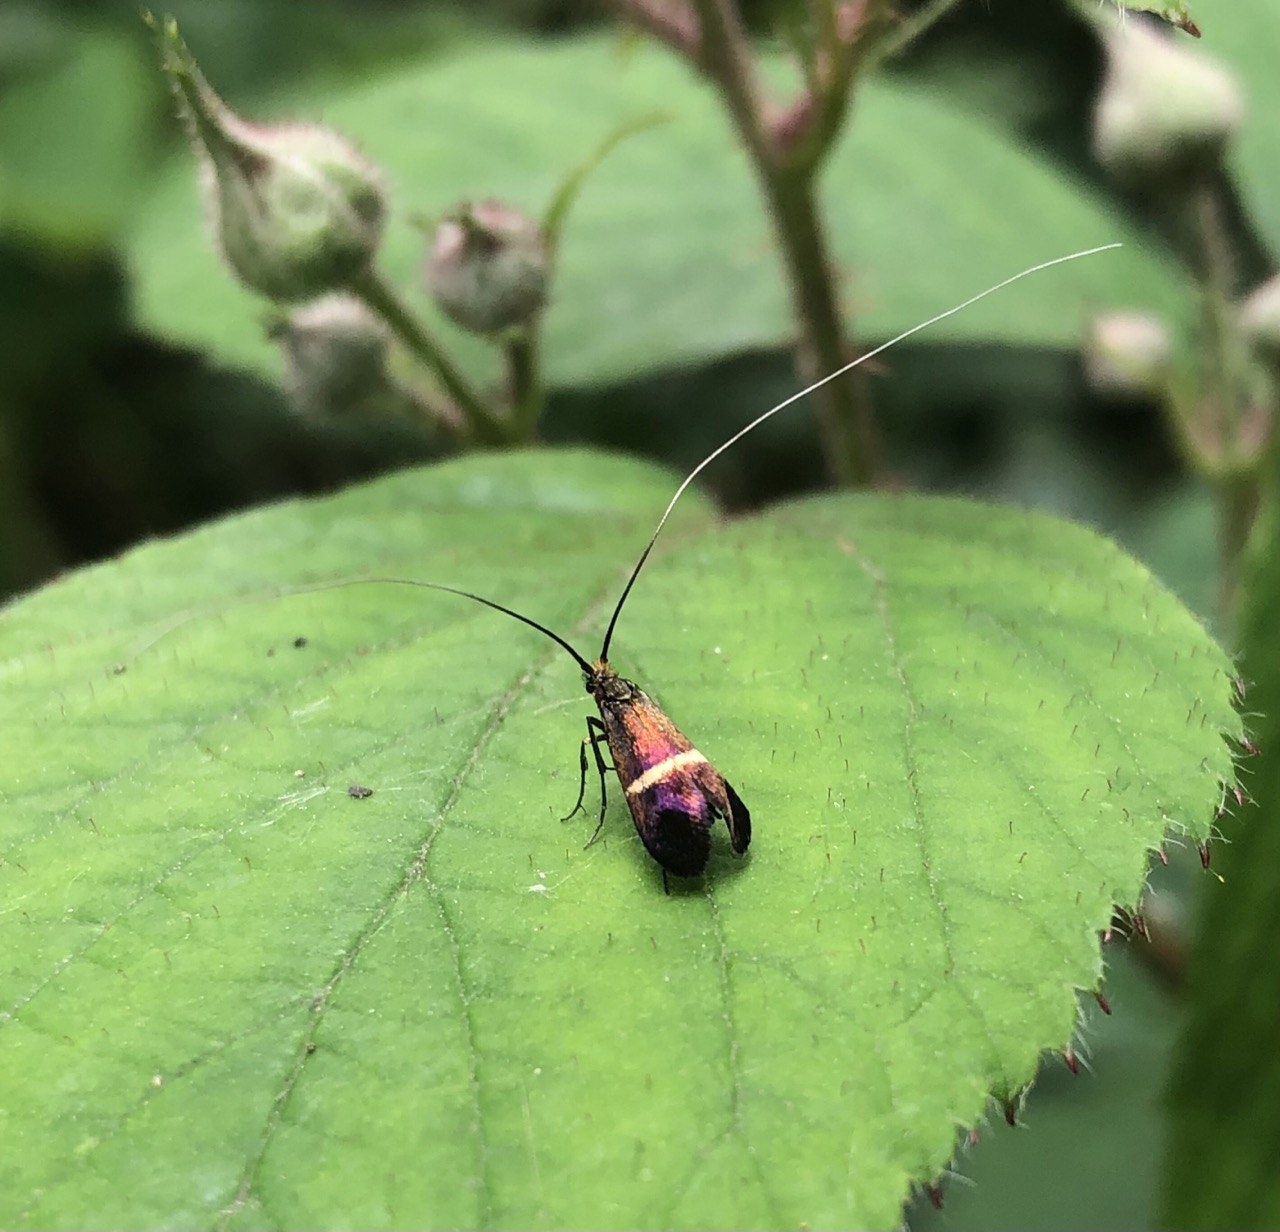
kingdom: Animalia
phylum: Arthropoda
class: Insecta
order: Lepidoptera
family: Adelidae
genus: Adela
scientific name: Adela australis
